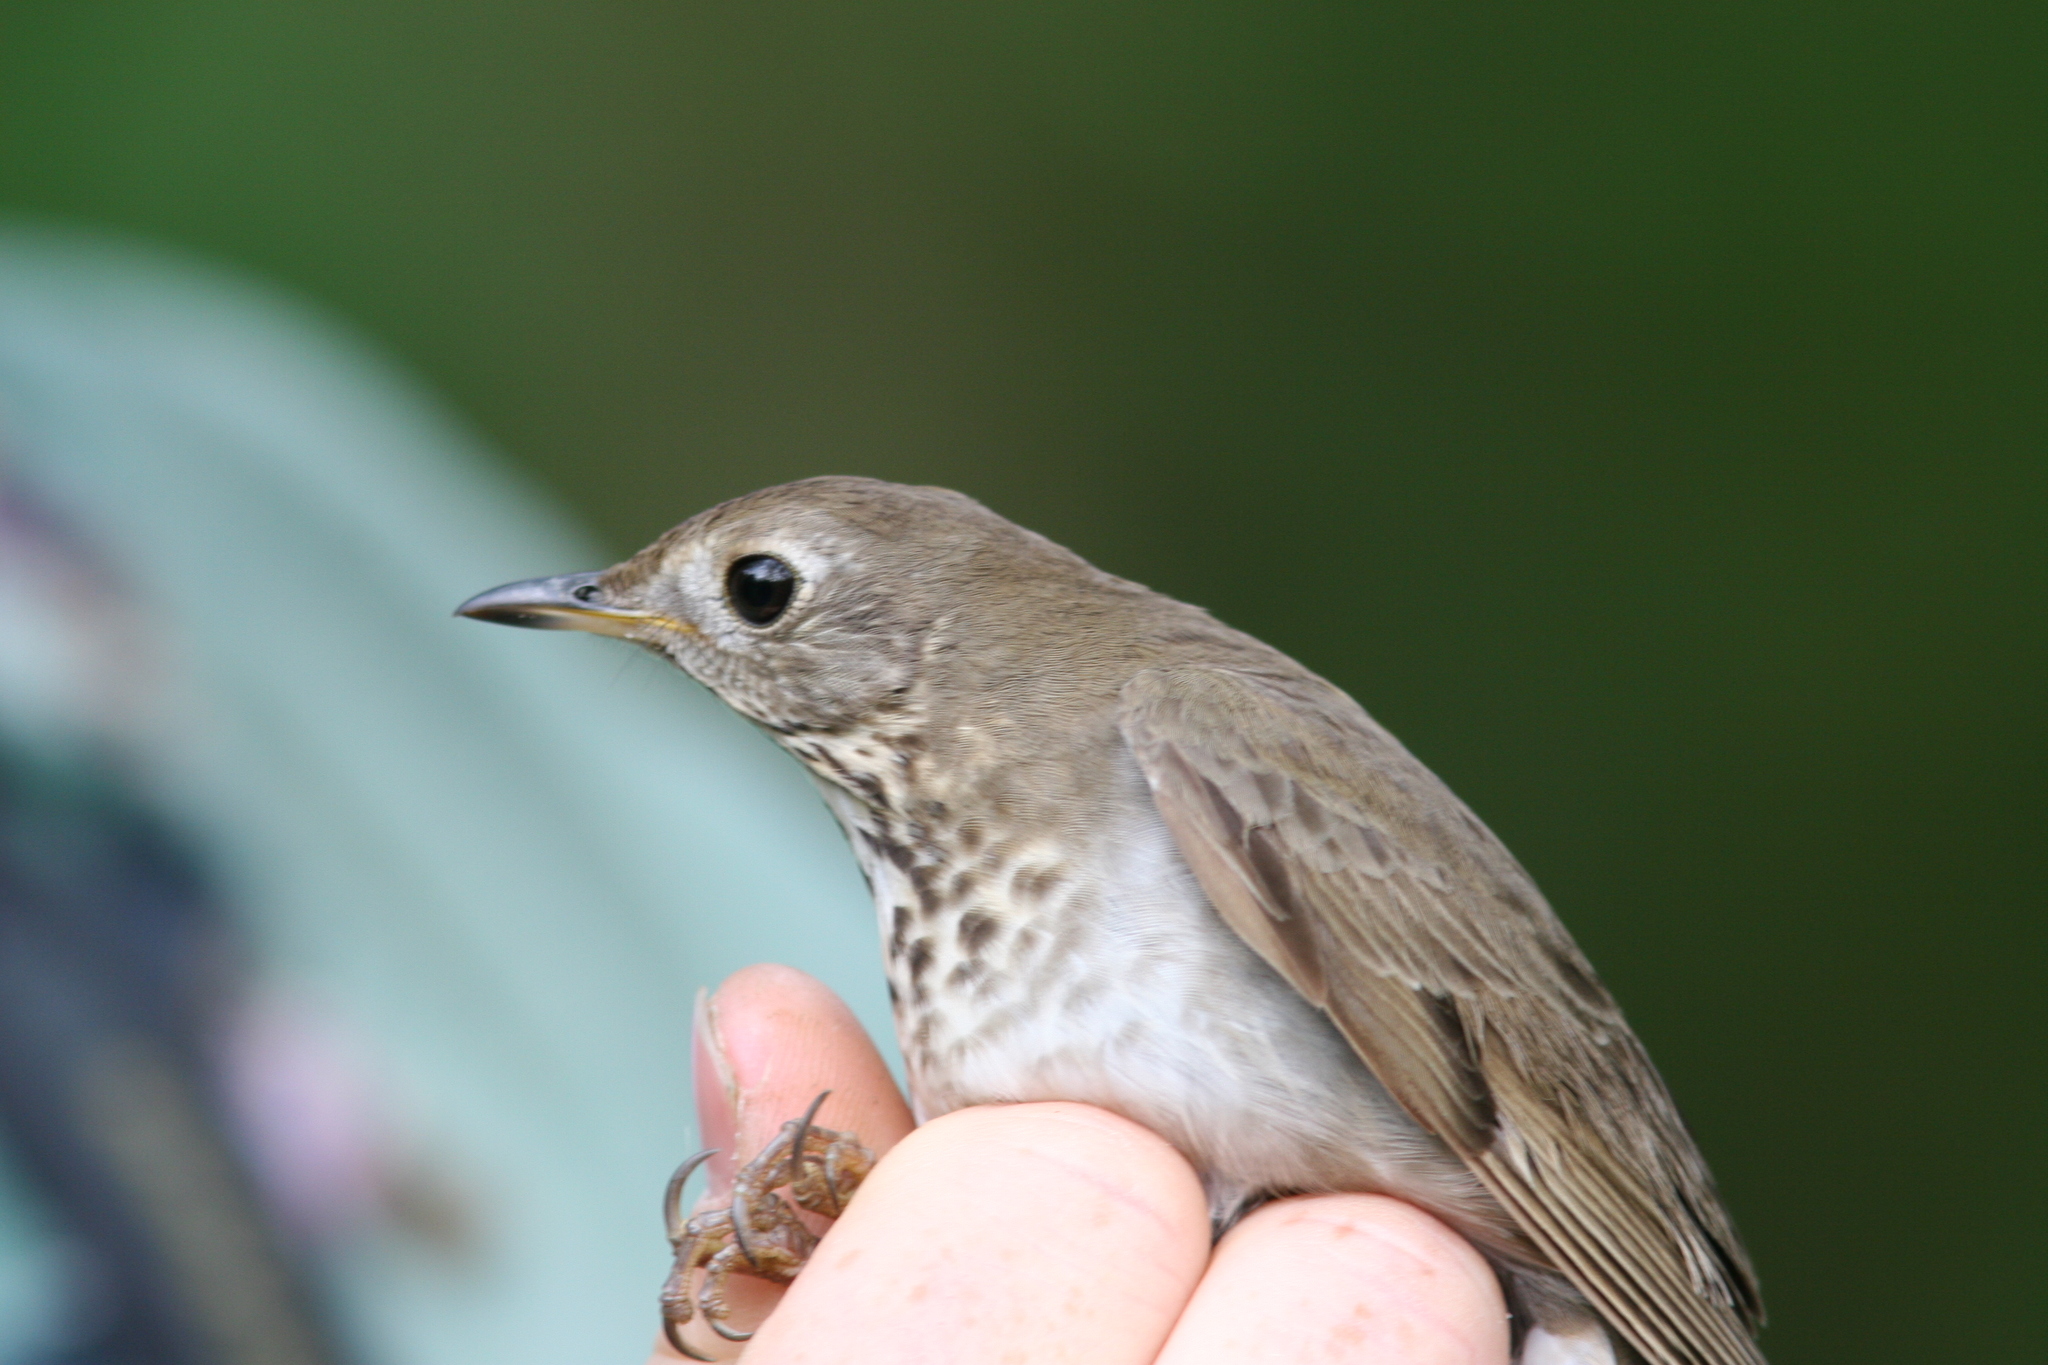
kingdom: Animalia
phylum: Chordata
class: Aves
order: Passeriformes
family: Turdidae
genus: Catharus
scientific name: Catharus minimus
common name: Grey-cheeked thrush
